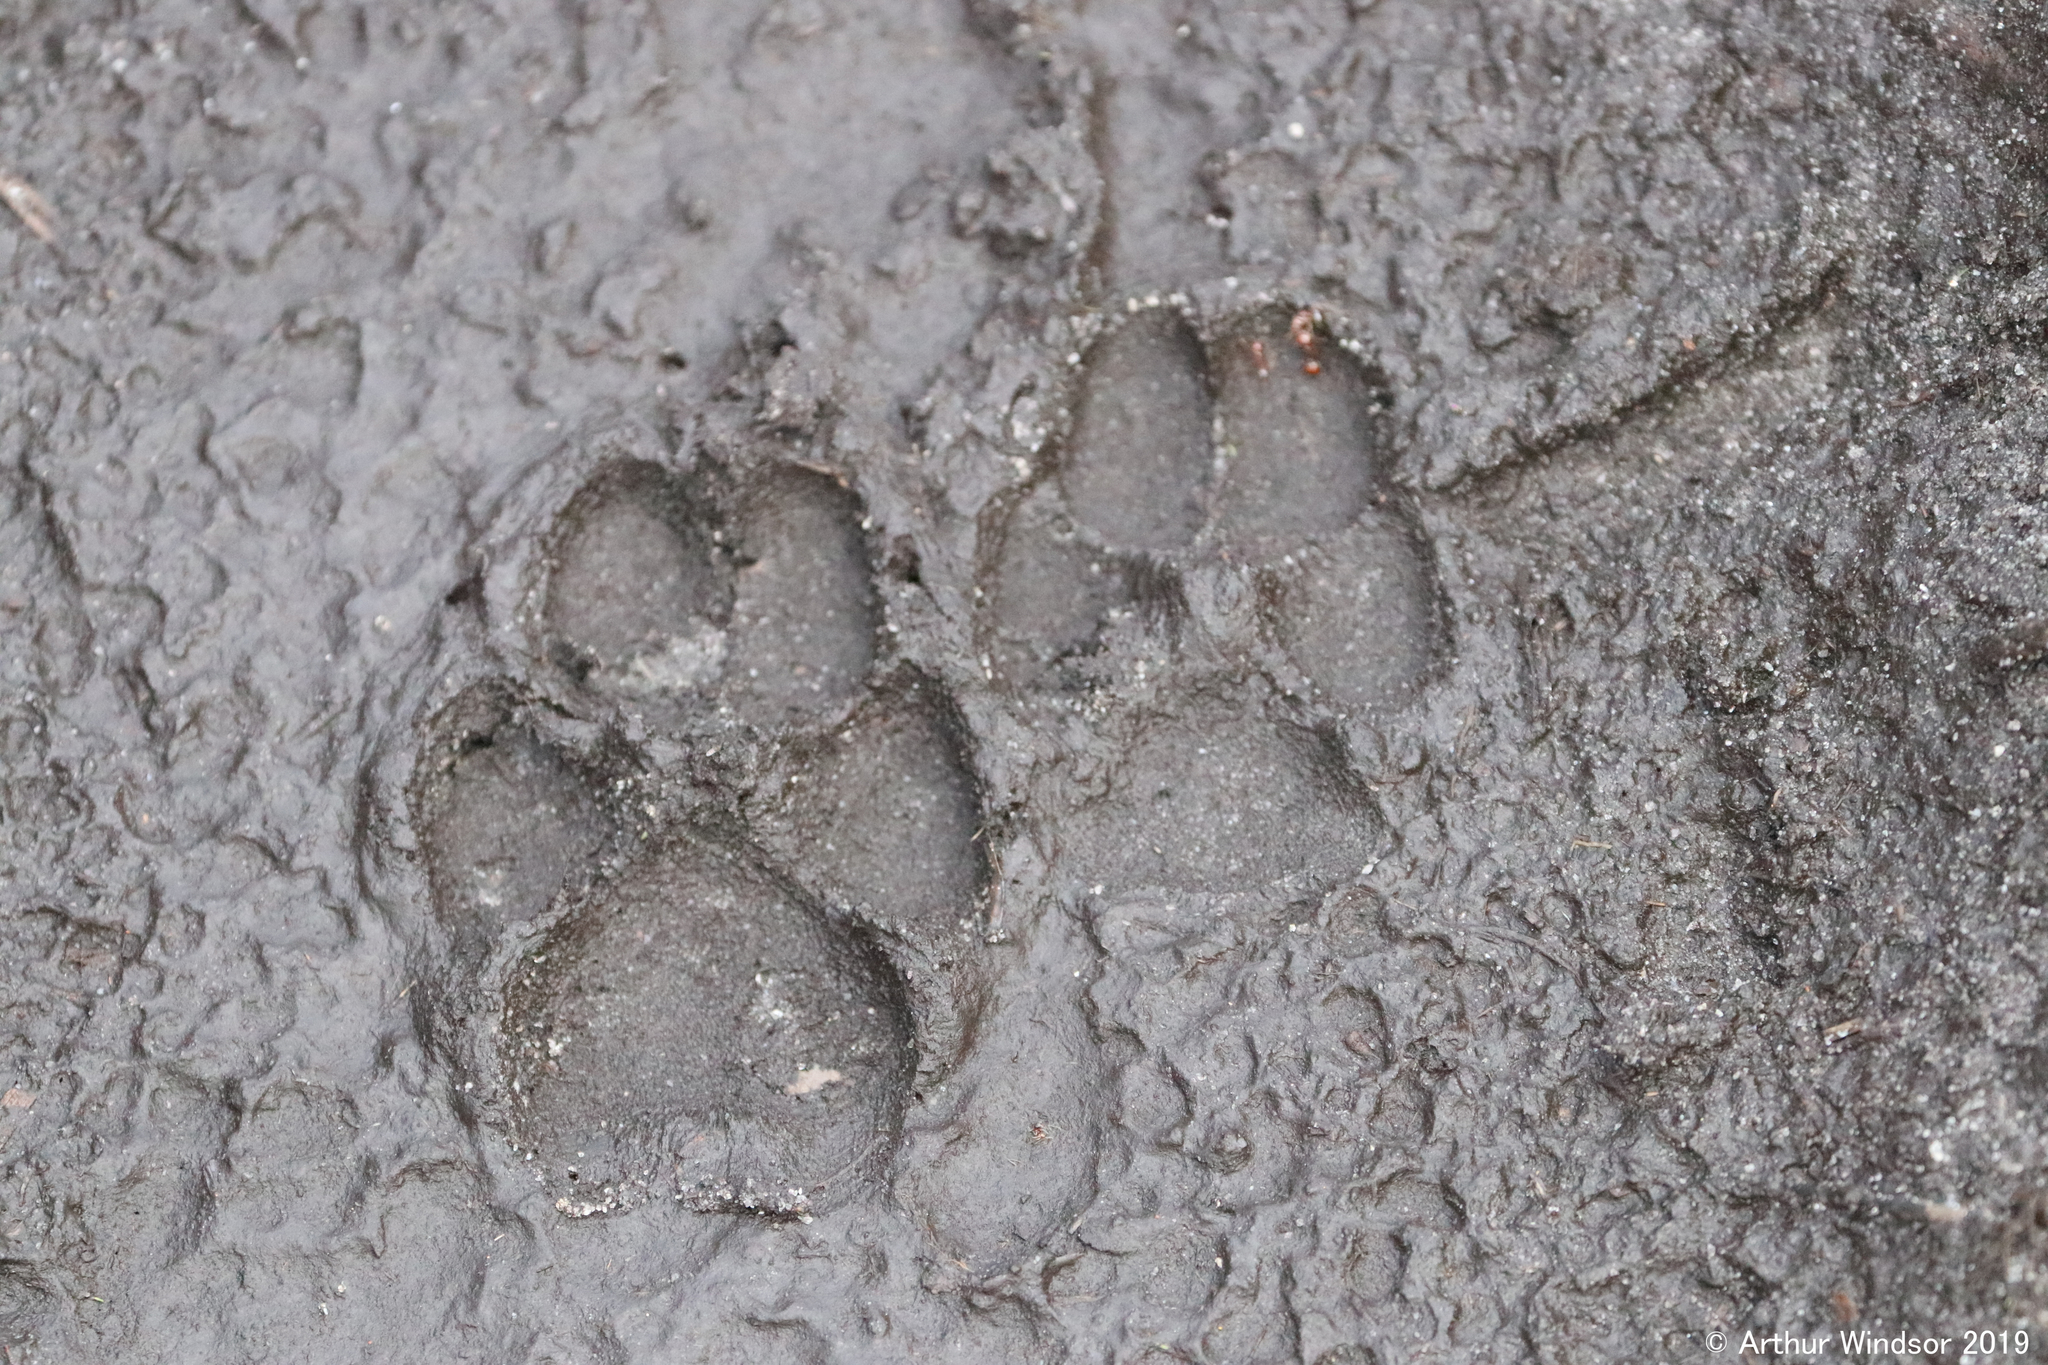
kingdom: Animalia
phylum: Chordata
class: Mammalia
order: Carnivora
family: Canidae
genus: Canis
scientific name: Canis latrans
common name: Coyote
